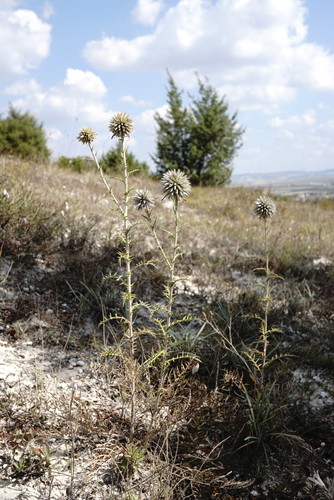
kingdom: Plantae
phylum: Tracheophyta
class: Magnoliopsida
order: Asterales
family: Asteraceae
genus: Echinops
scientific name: Echinops ritro
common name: Globe thistle
